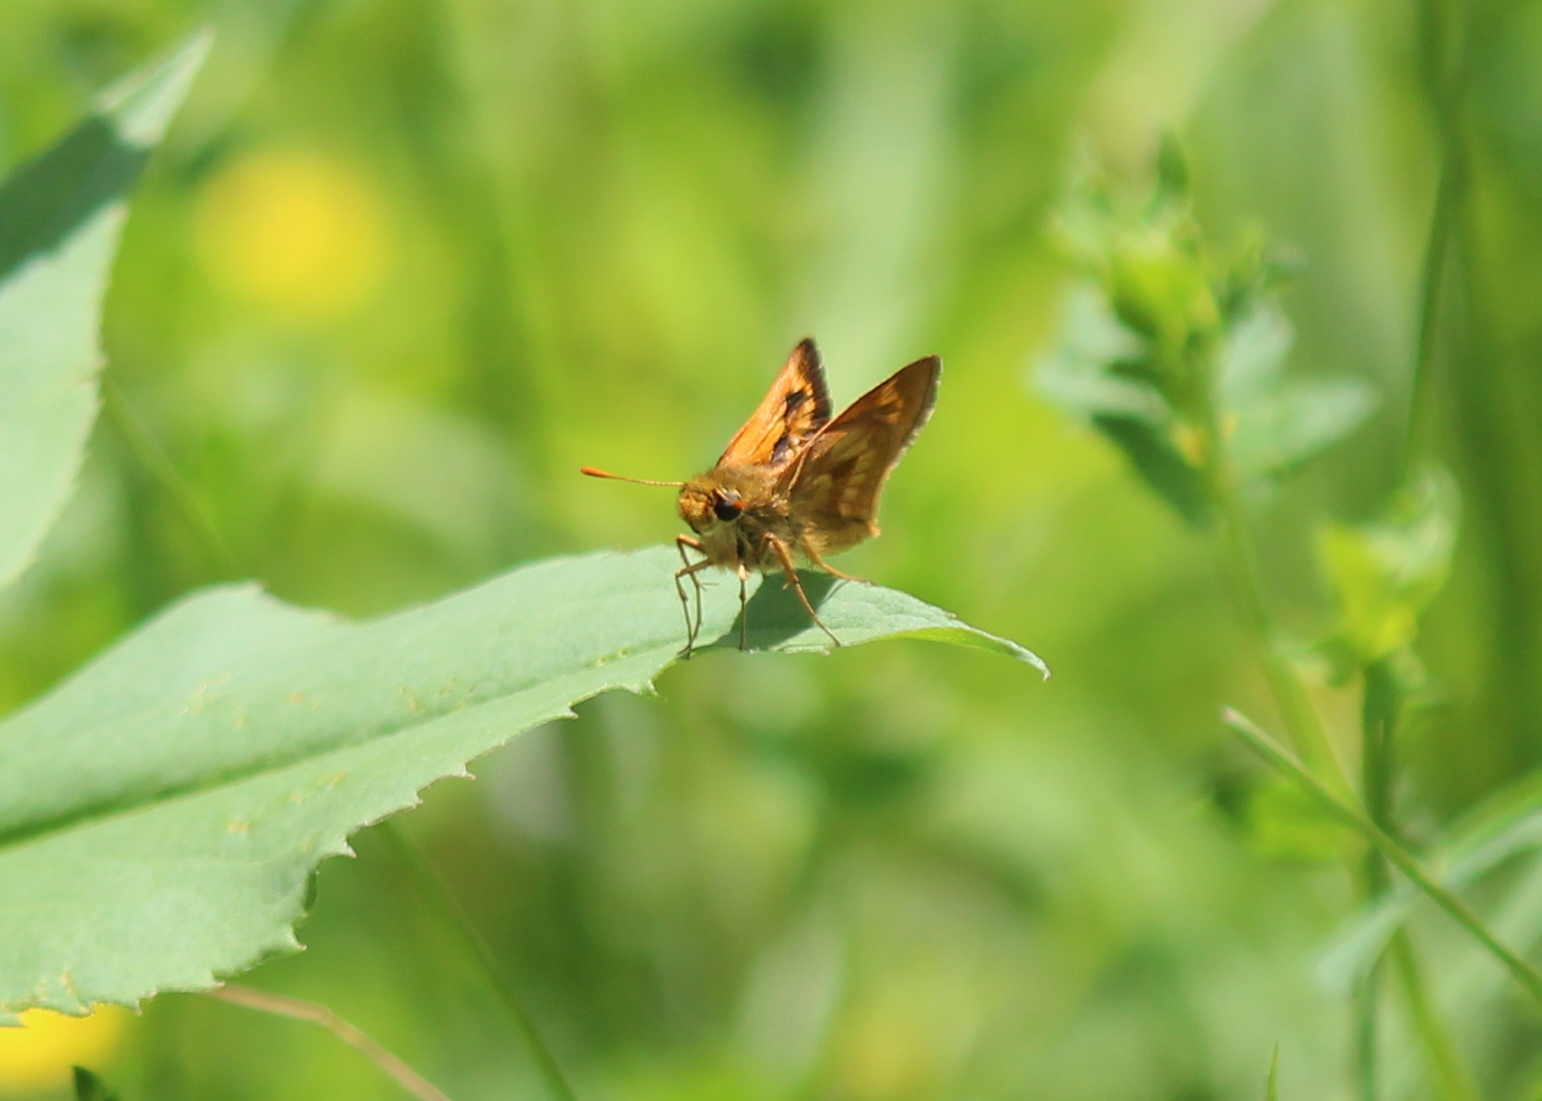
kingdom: Animalia
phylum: Arthropoda
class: Insecta
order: Lepidoptera
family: Hesperiidae
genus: Polites
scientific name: Polites mystic
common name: Long dash
